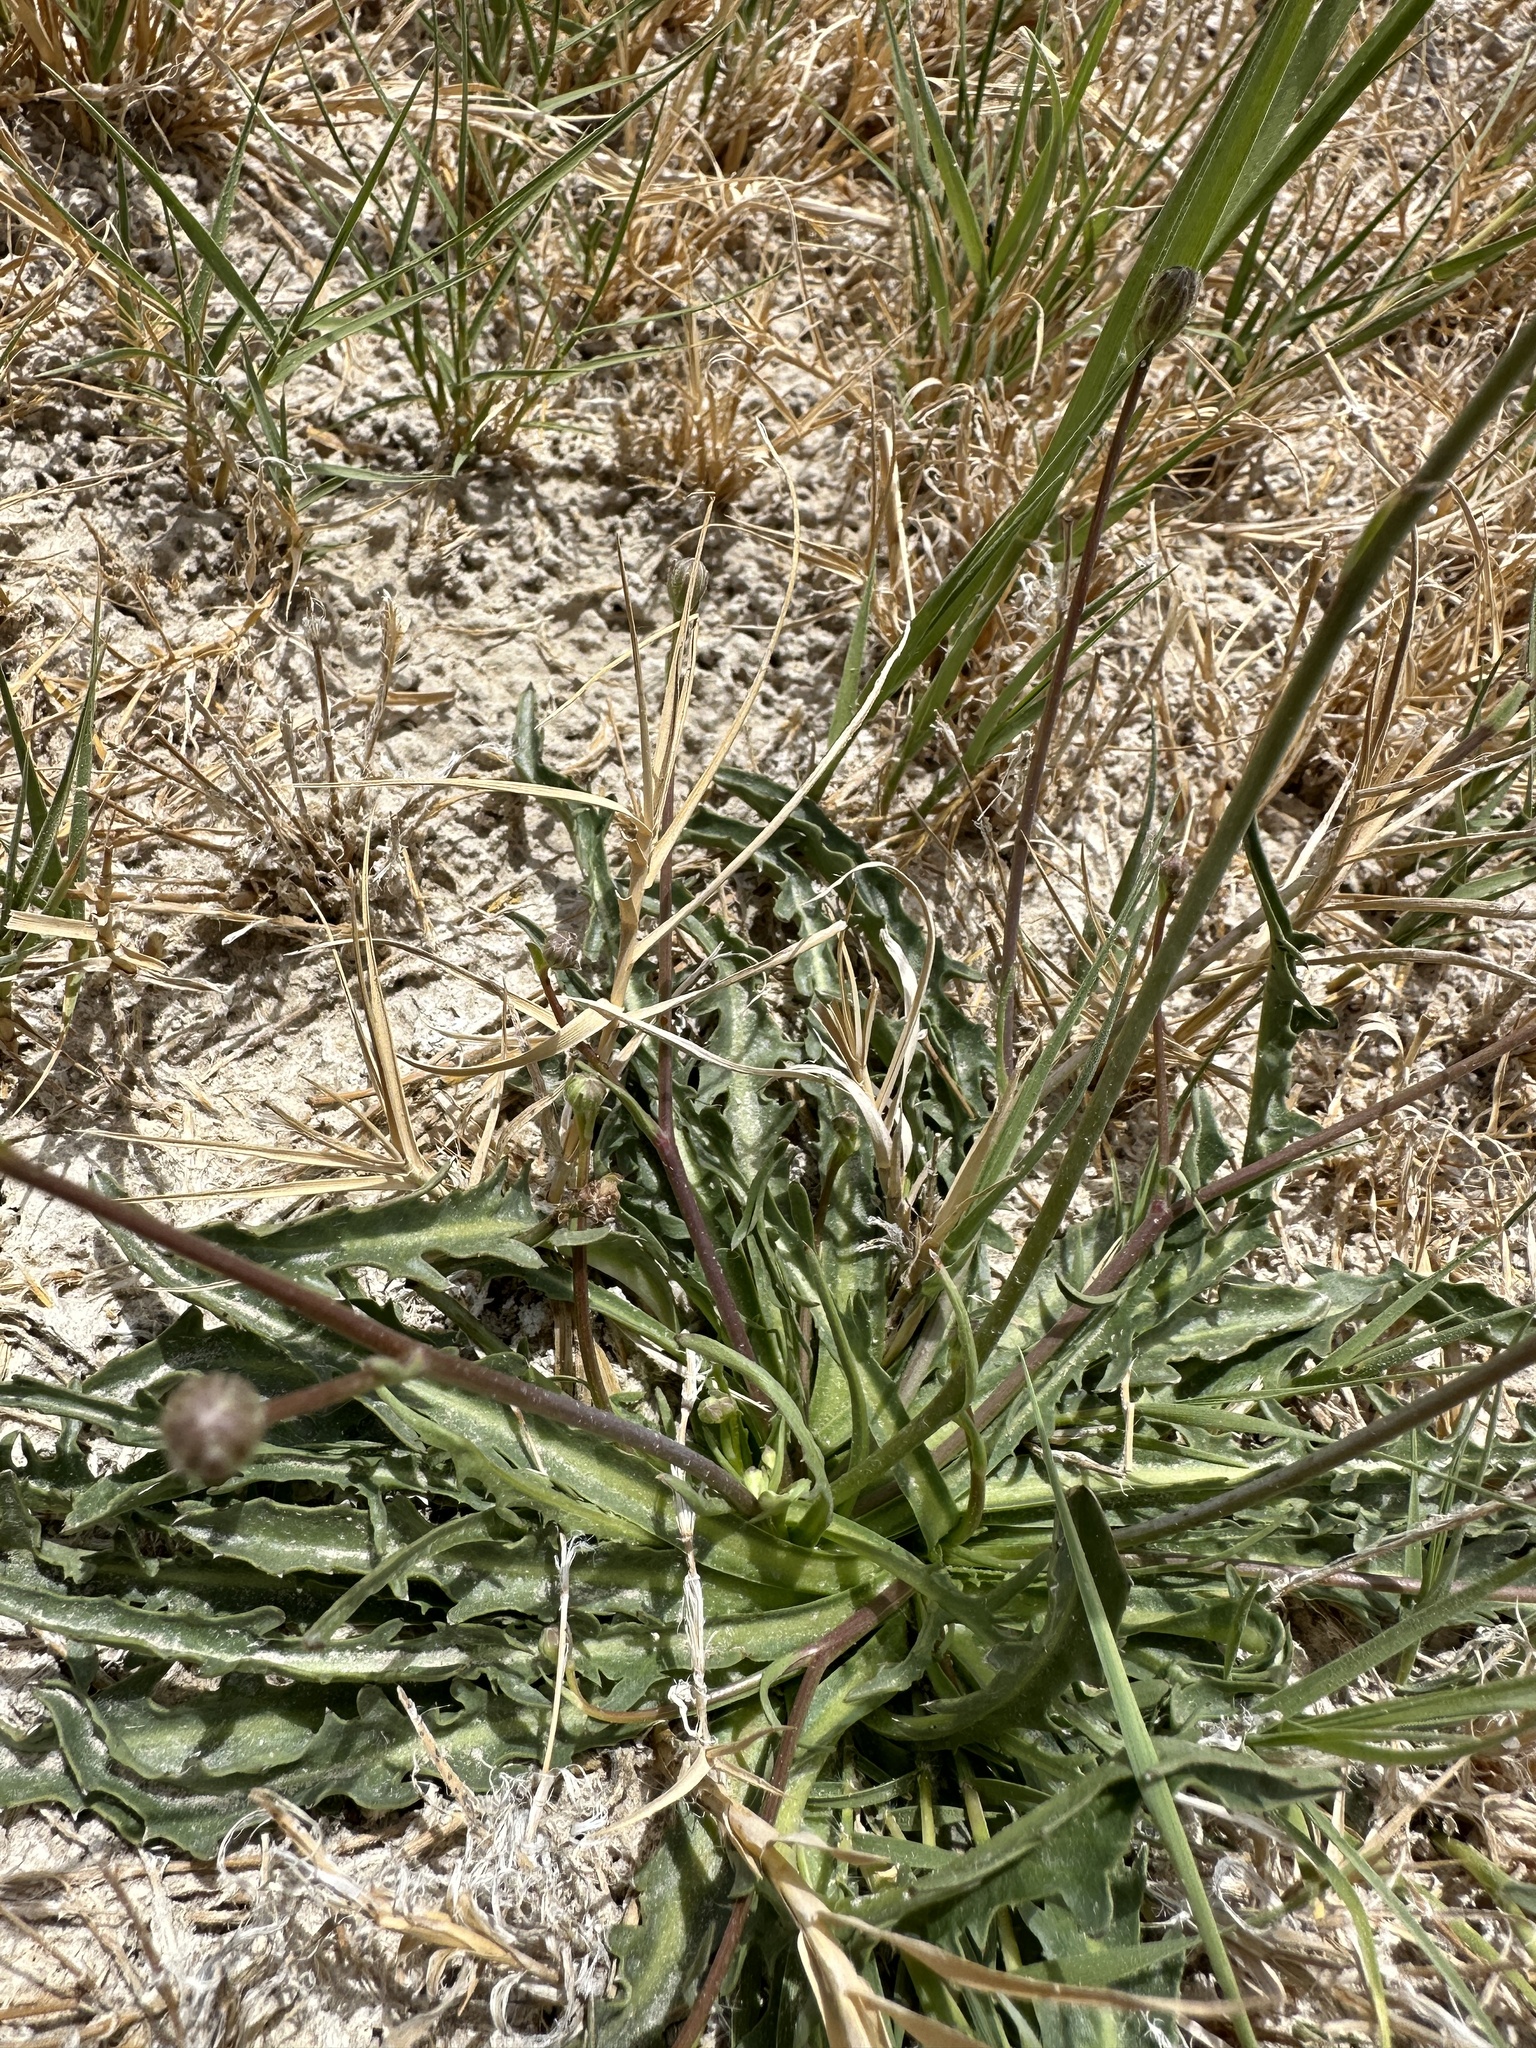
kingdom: Plantae
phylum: Tracheophyta
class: Magnoliopsida
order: Asterales
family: Asteraceae
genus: Crepis
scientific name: Crepis runcinata
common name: Dandelion hawksbeard
